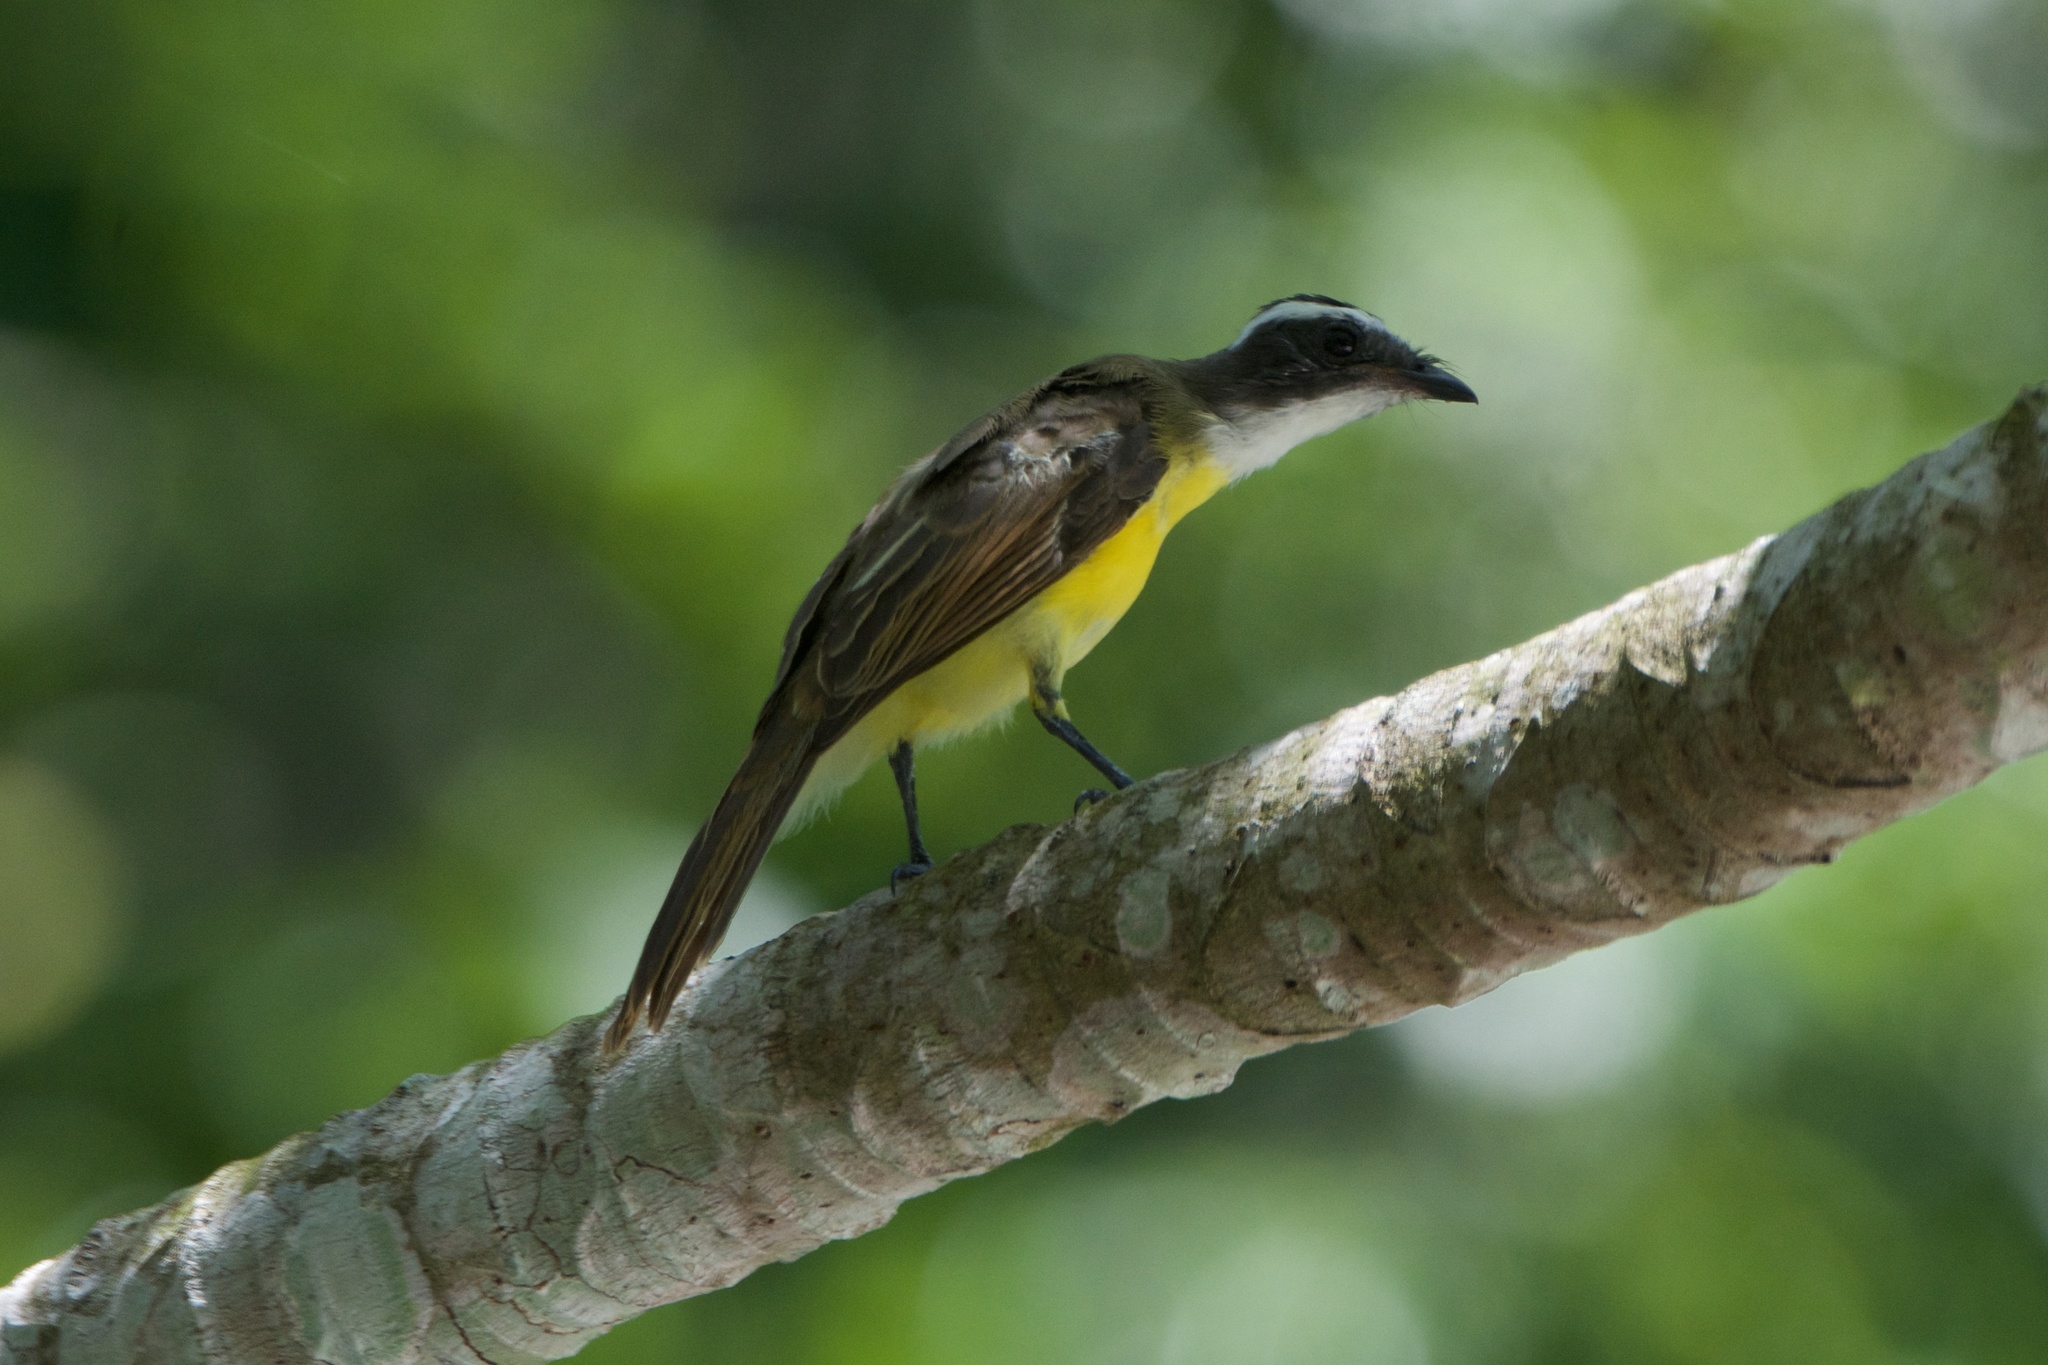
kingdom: Animalia
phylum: Chordata
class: Aves
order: Passeriformes
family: Tyrannidae
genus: Myiozetetes
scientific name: Myiozetetes similis
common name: Social flycatcher
